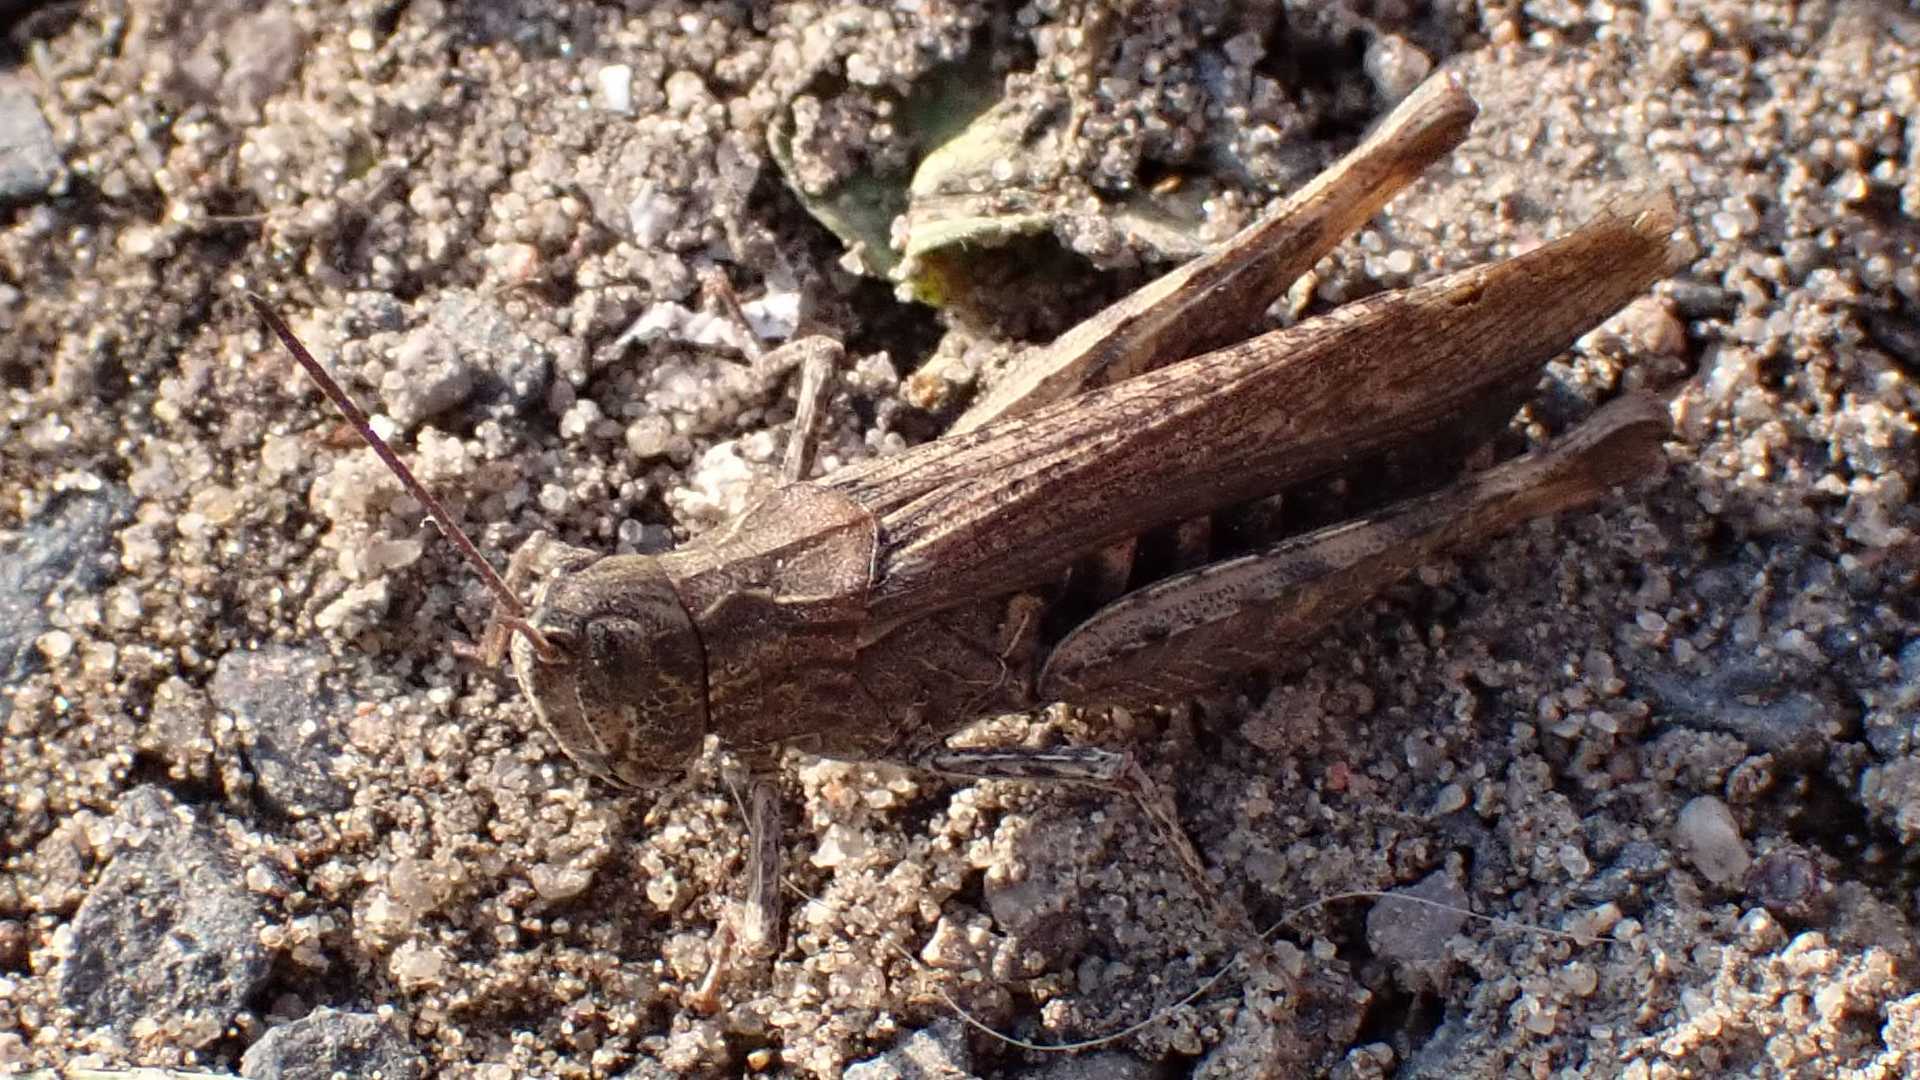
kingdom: Animalia
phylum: Arthropoda
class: Insecta
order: Orthoptera
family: Acrididae
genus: Glyptobothrus
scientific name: Glyptobothrus
